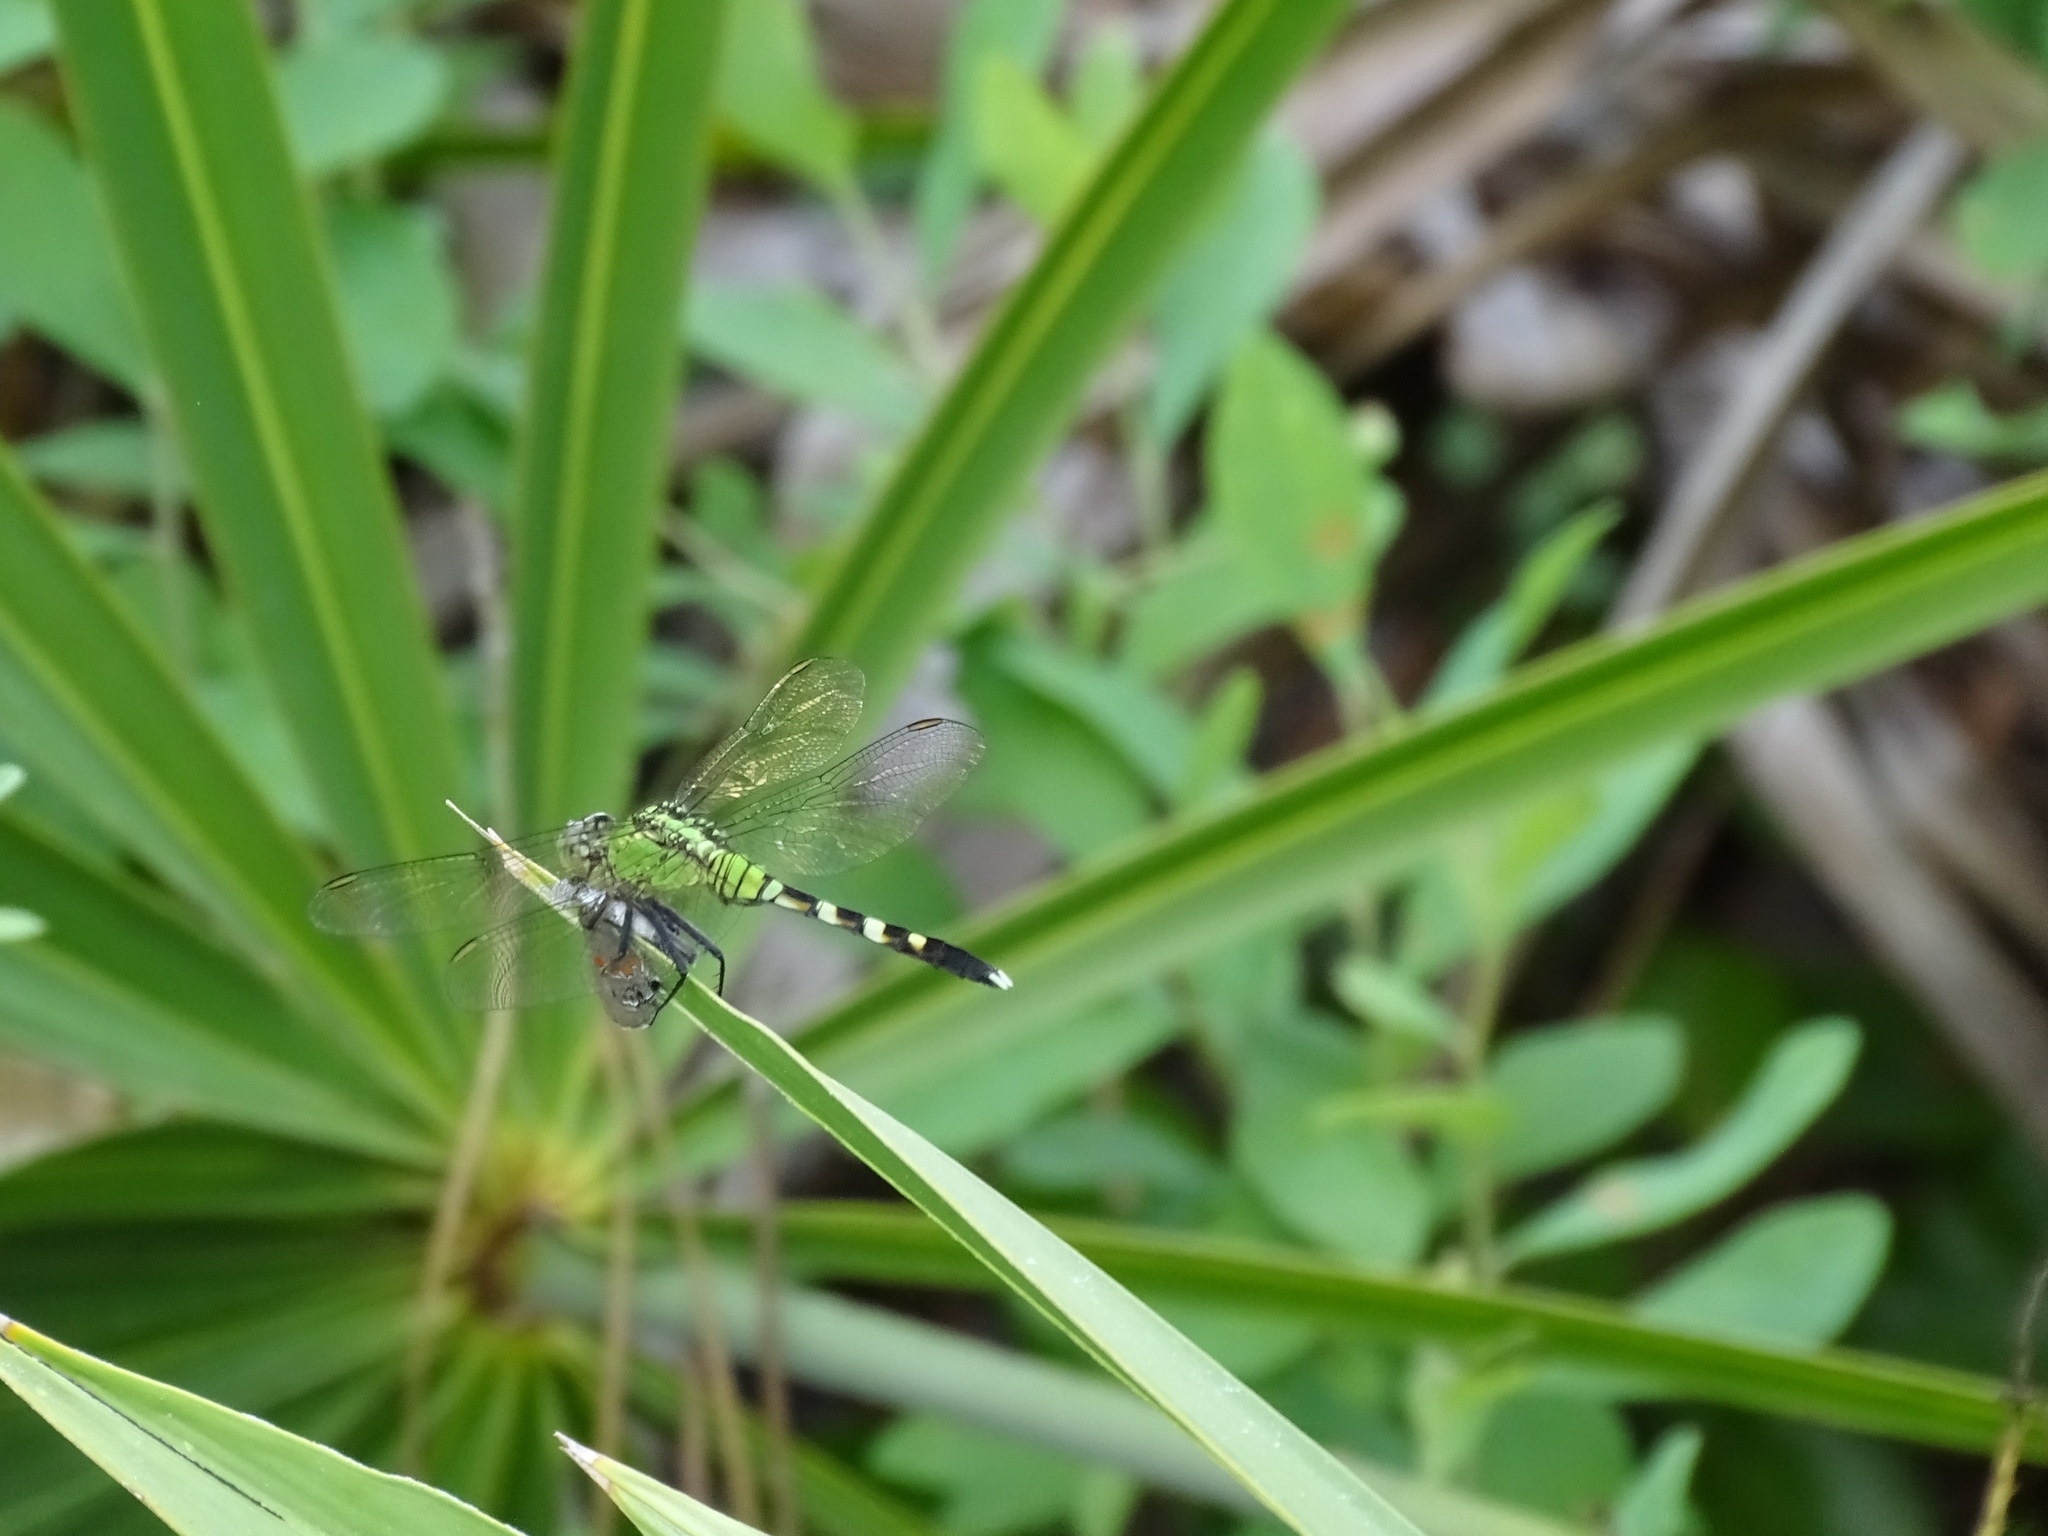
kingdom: Animalia
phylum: Arthropoda
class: Insecta
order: Odonata
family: Libellulidae
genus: Erythemis
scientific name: Erythemis simplicicollis
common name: Eastern pondhawk
